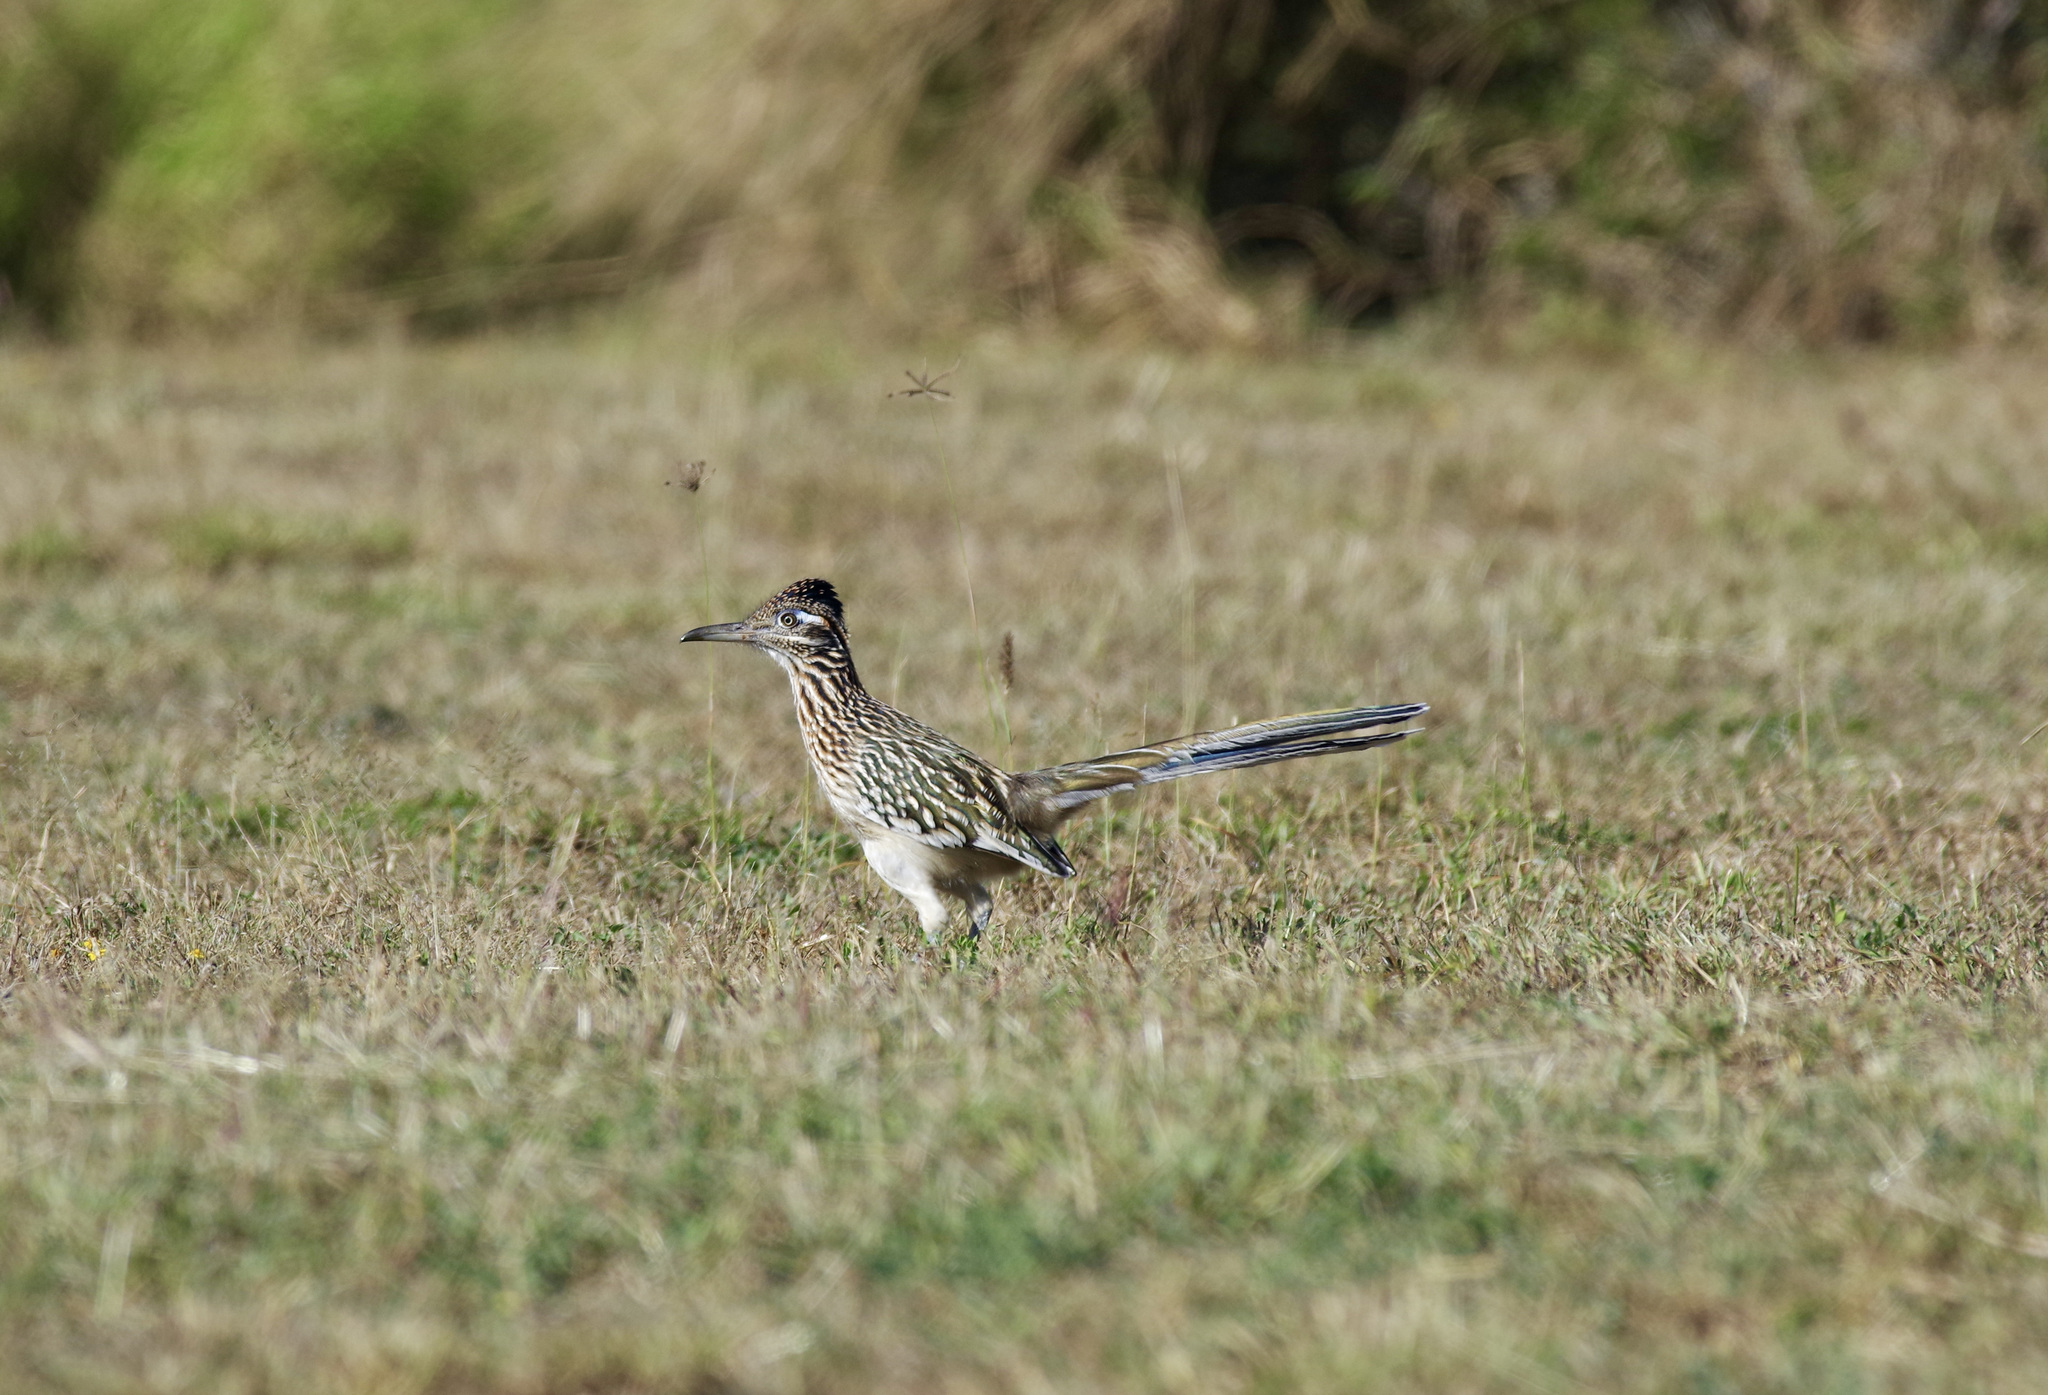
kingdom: Animalia
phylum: Chordata
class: Aves
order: Cuculiformes
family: Cuculidae
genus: Geococcyx
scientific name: Geococcyx californianus
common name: Greater roadrunner
